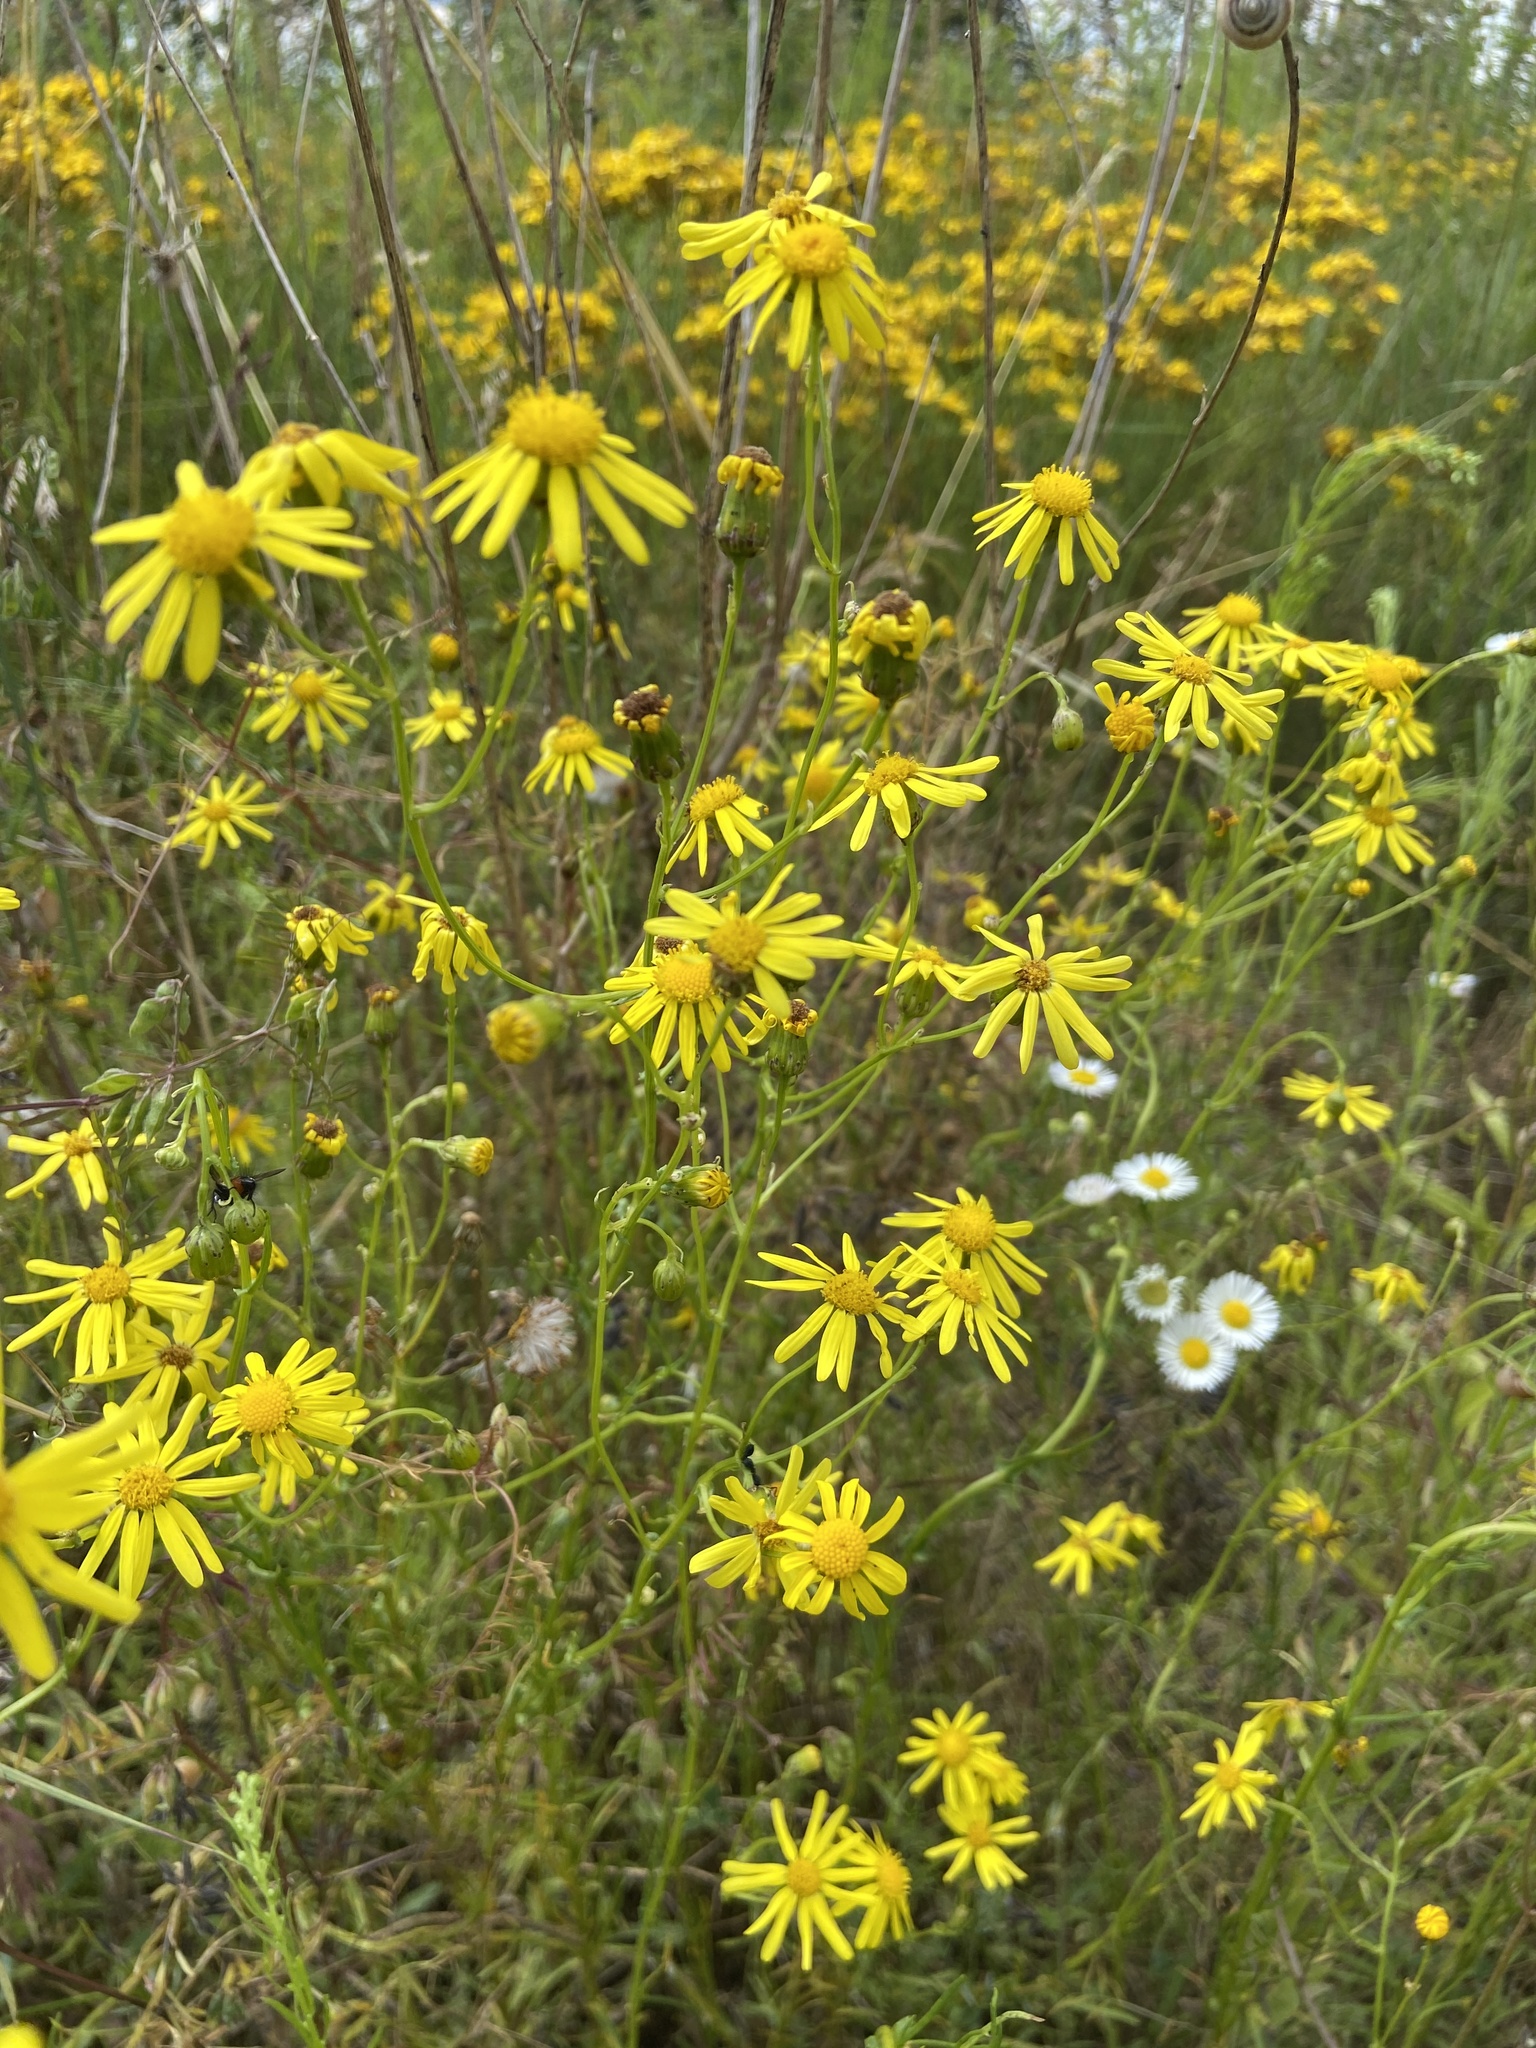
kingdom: Plantae
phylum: Tracheophyta
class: Magnoliopsida
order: Asterales
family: Asteraceae
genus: Senecio
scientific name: Senecio inaequidens
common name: Narrow-leaved ragwort
